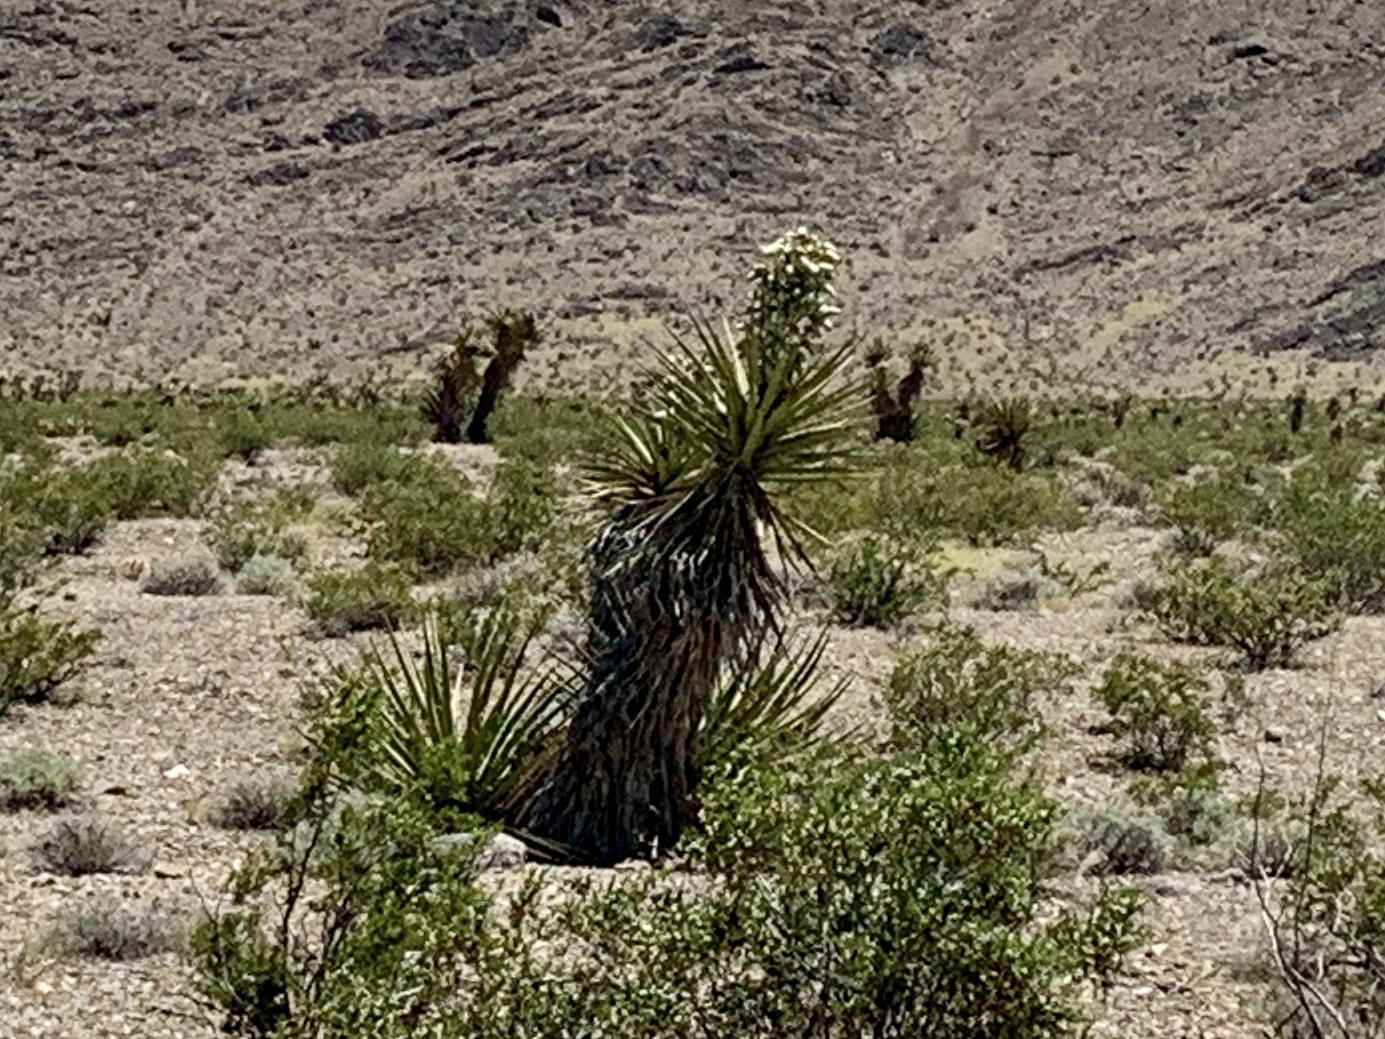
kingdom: Plantae
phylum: Tracheophyta
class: Liliopsida
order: Asparagales
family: Asparagaceae
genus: Yucca
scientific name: Yucca schidigera
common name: Mojave yucca
